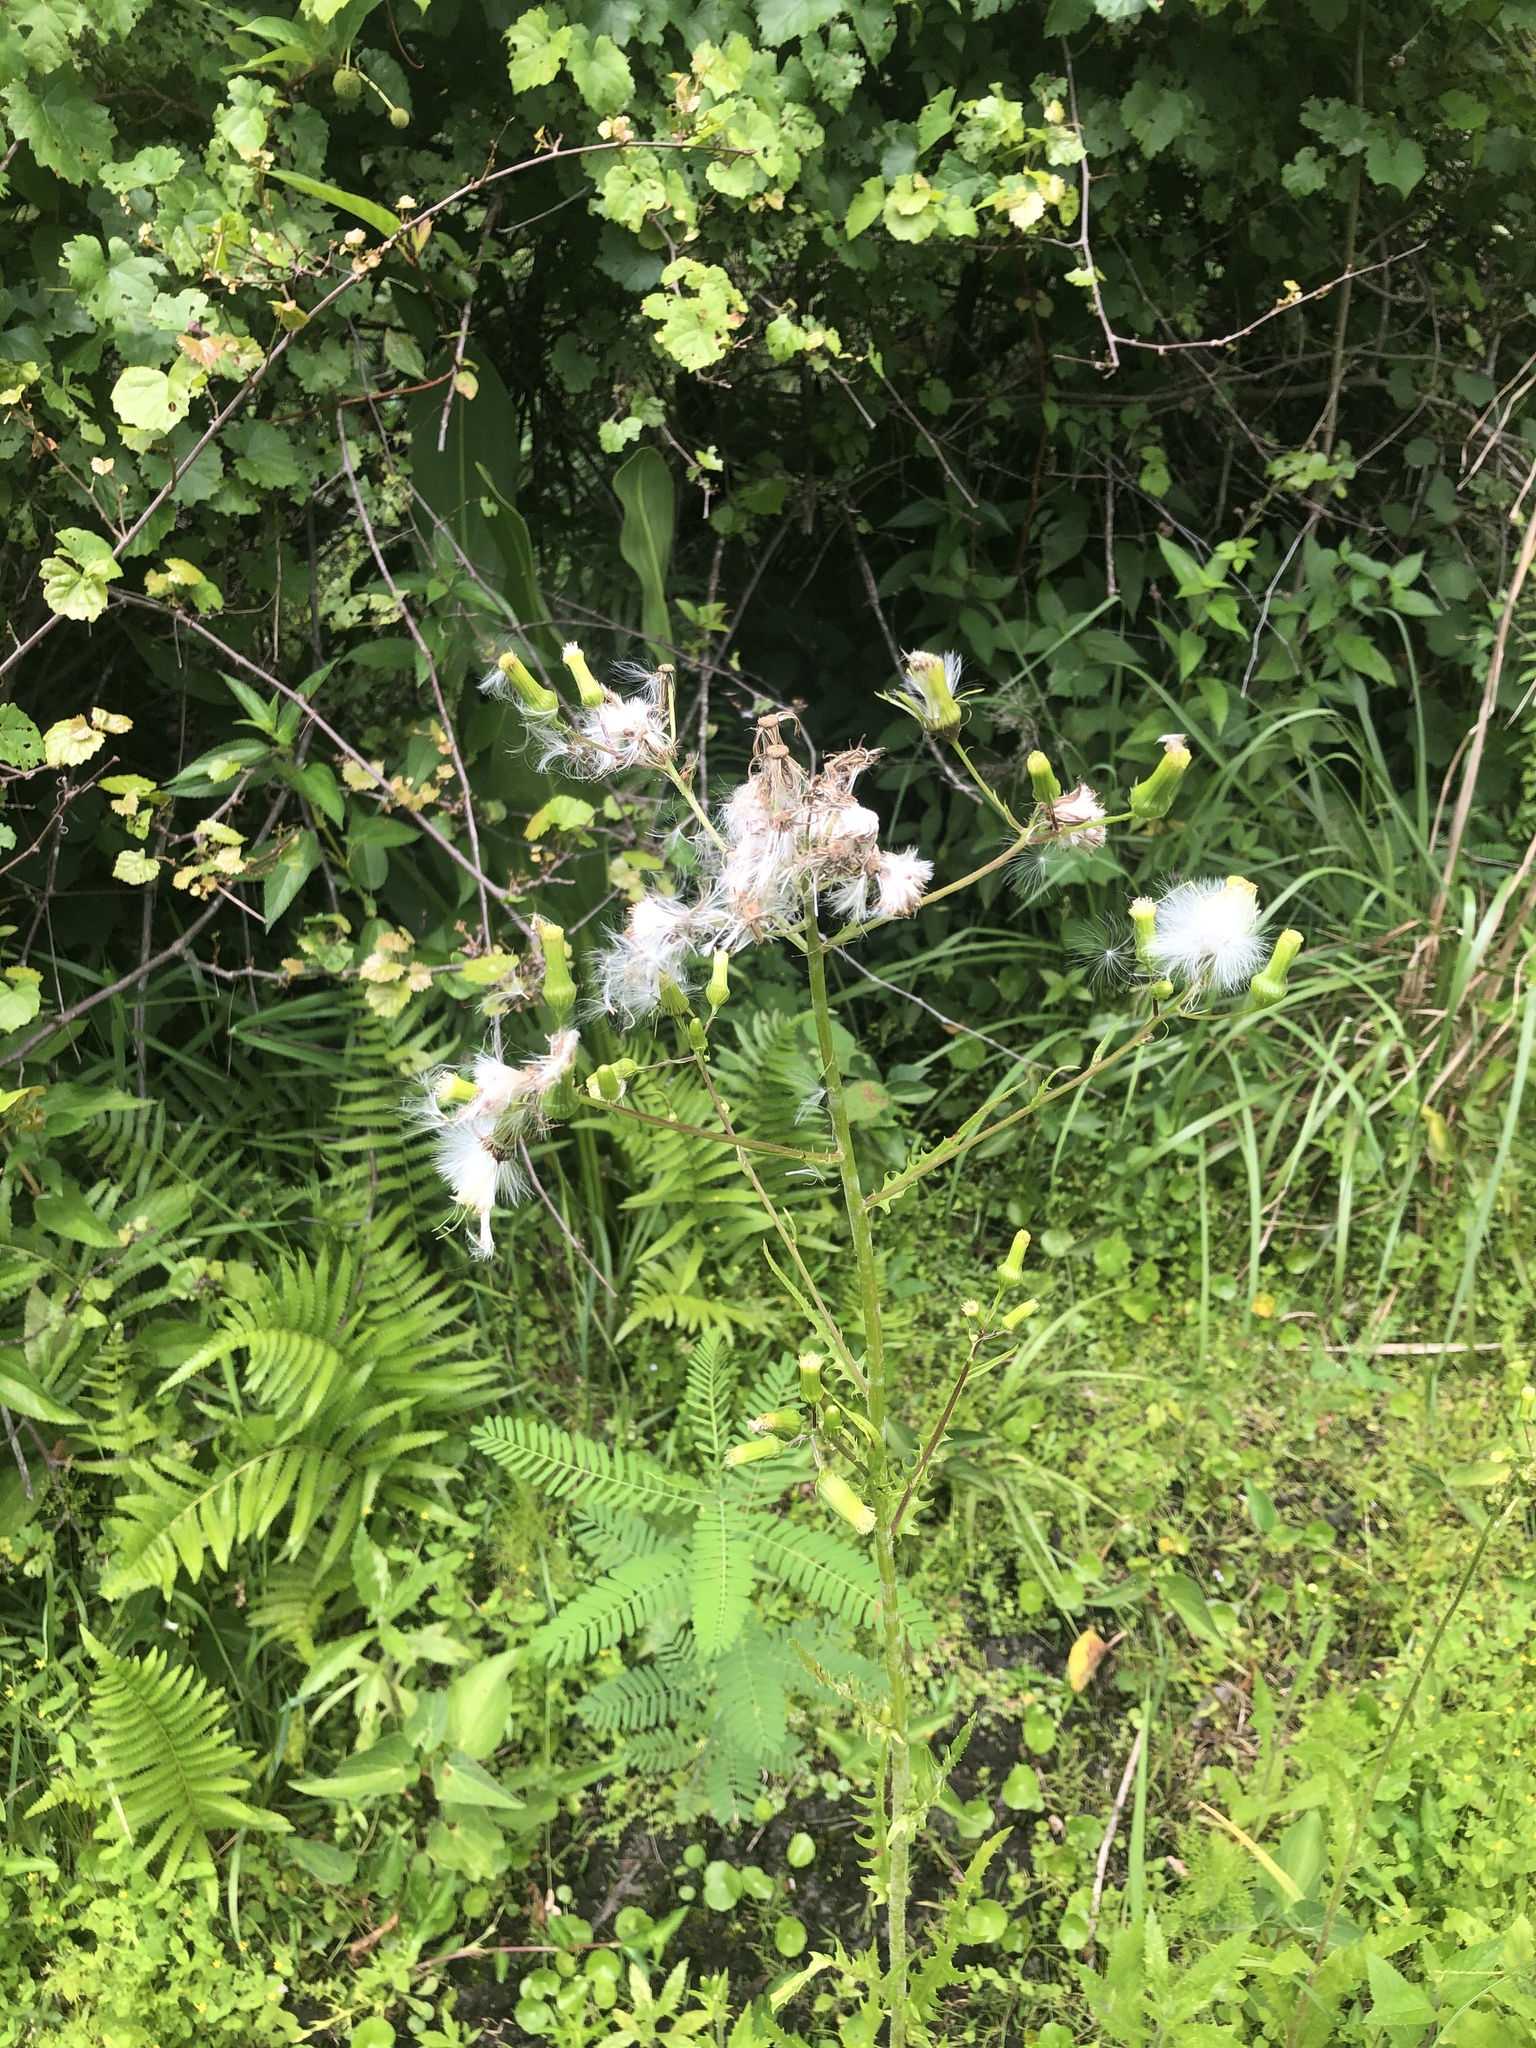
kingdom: Plantae
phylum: Tracheophyta
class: Magnoliopsida
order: Asterales
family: Asteraceae
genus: Erechtites
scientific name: Erechtites hieraciifolius
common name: American burnweed
